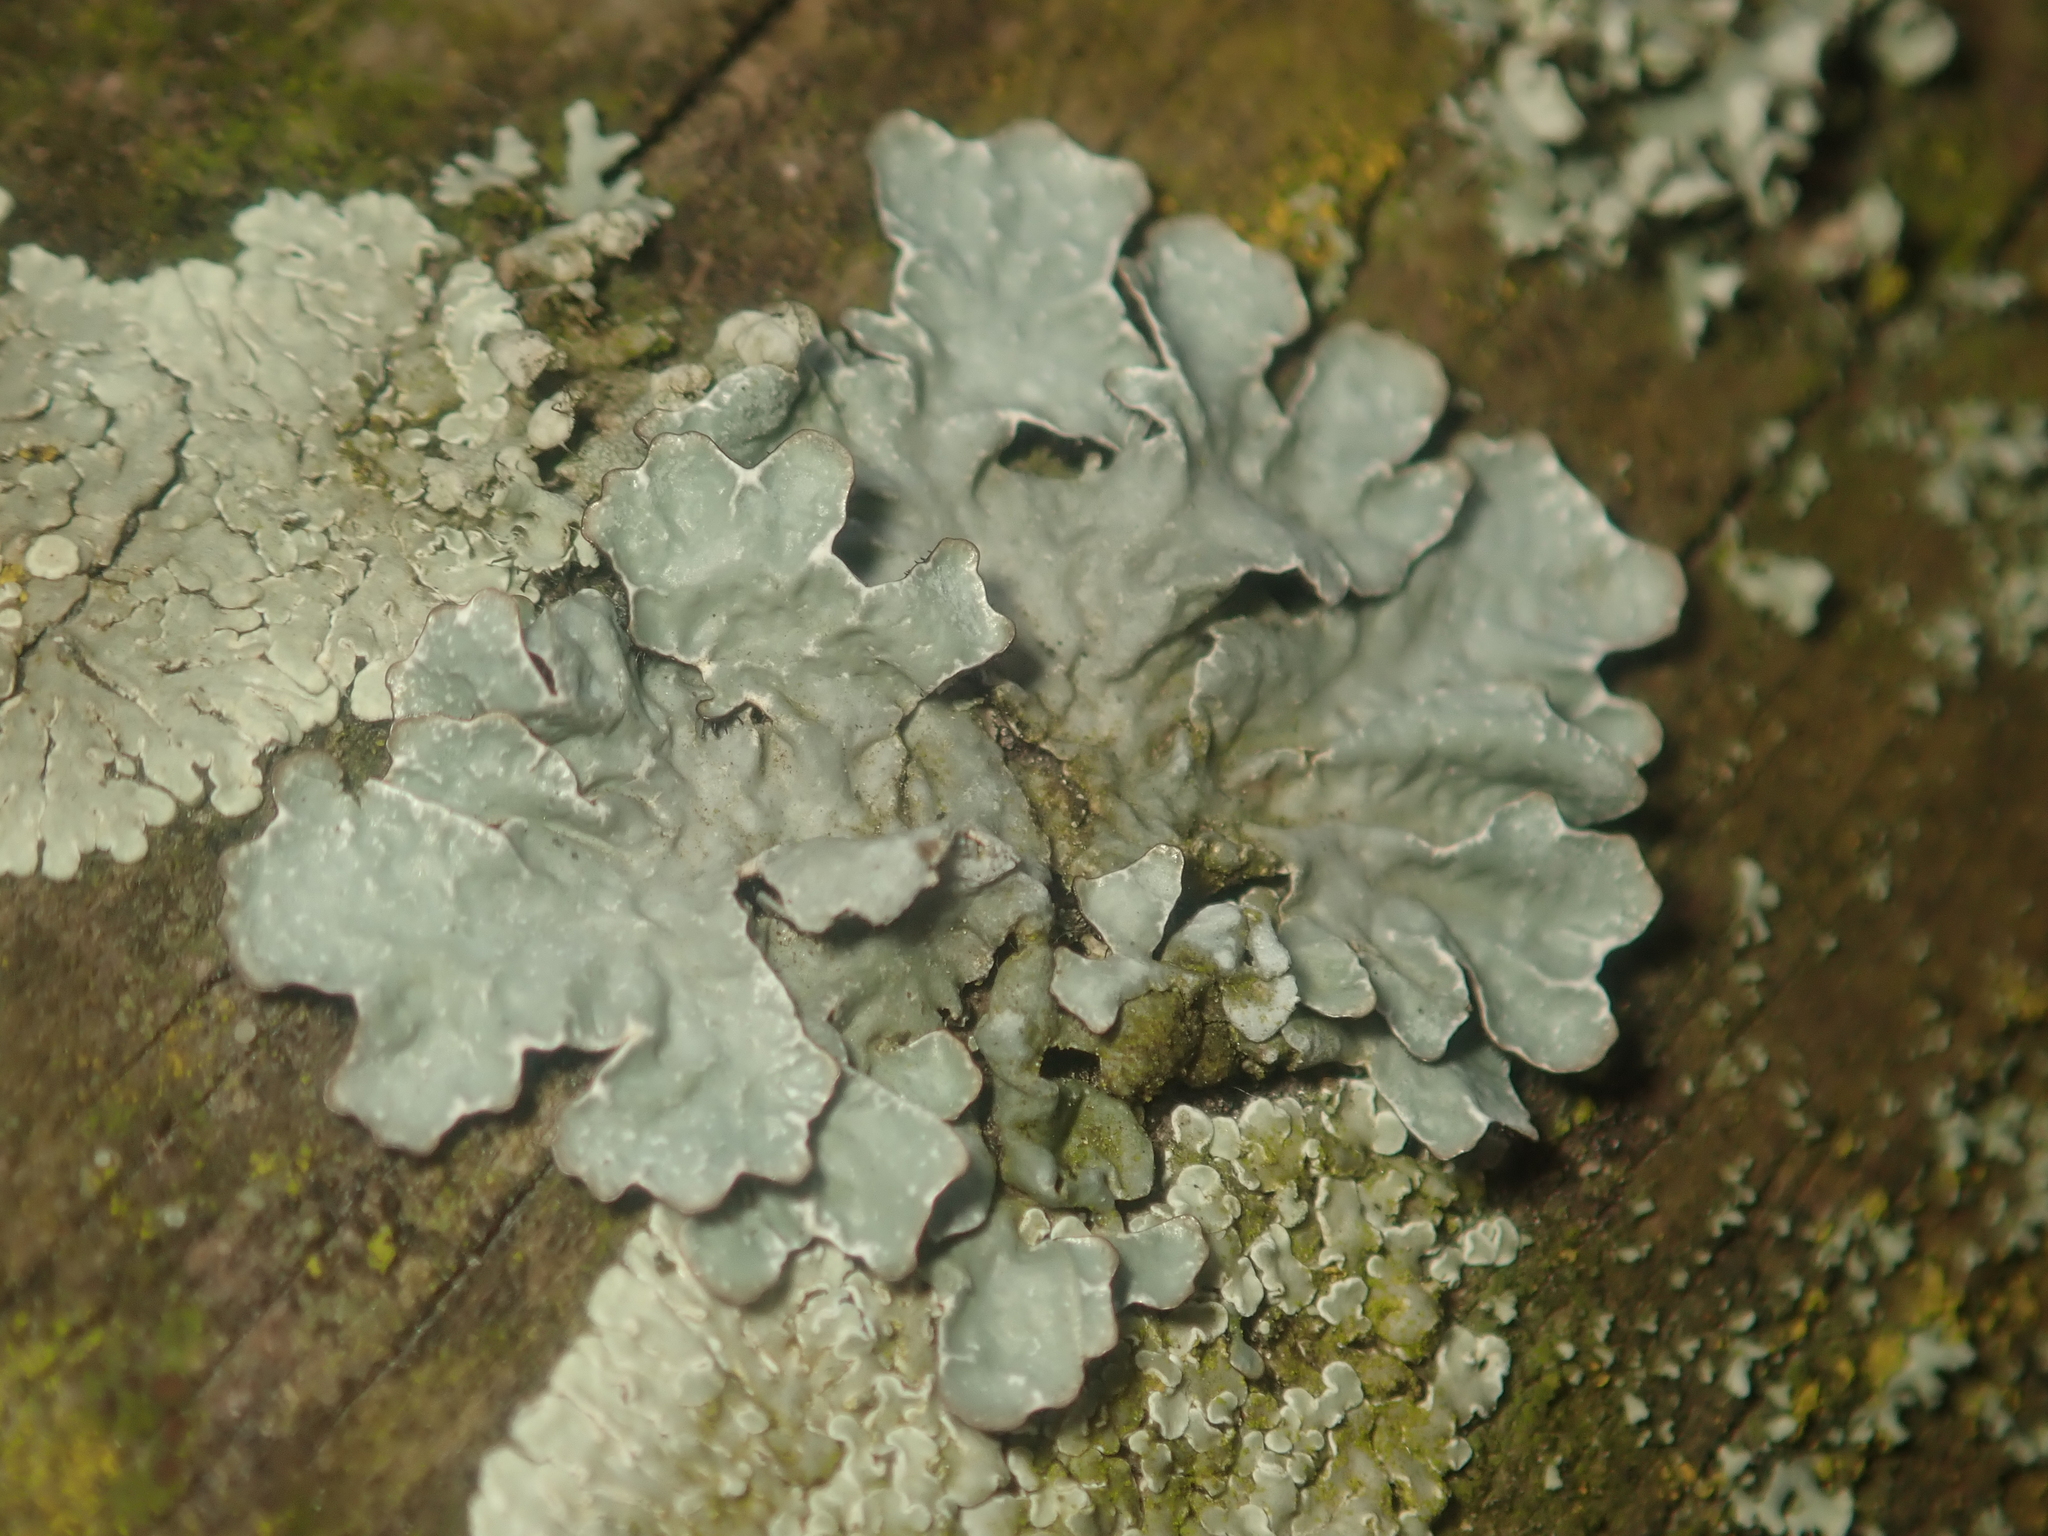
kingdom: Fungi
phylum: Ascomycota
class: Lecanoromycetes
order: Lecanorales
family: Parmeliaceae
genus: Parmelia
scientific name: Parmelia sulcata
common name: Netted shield lichen
